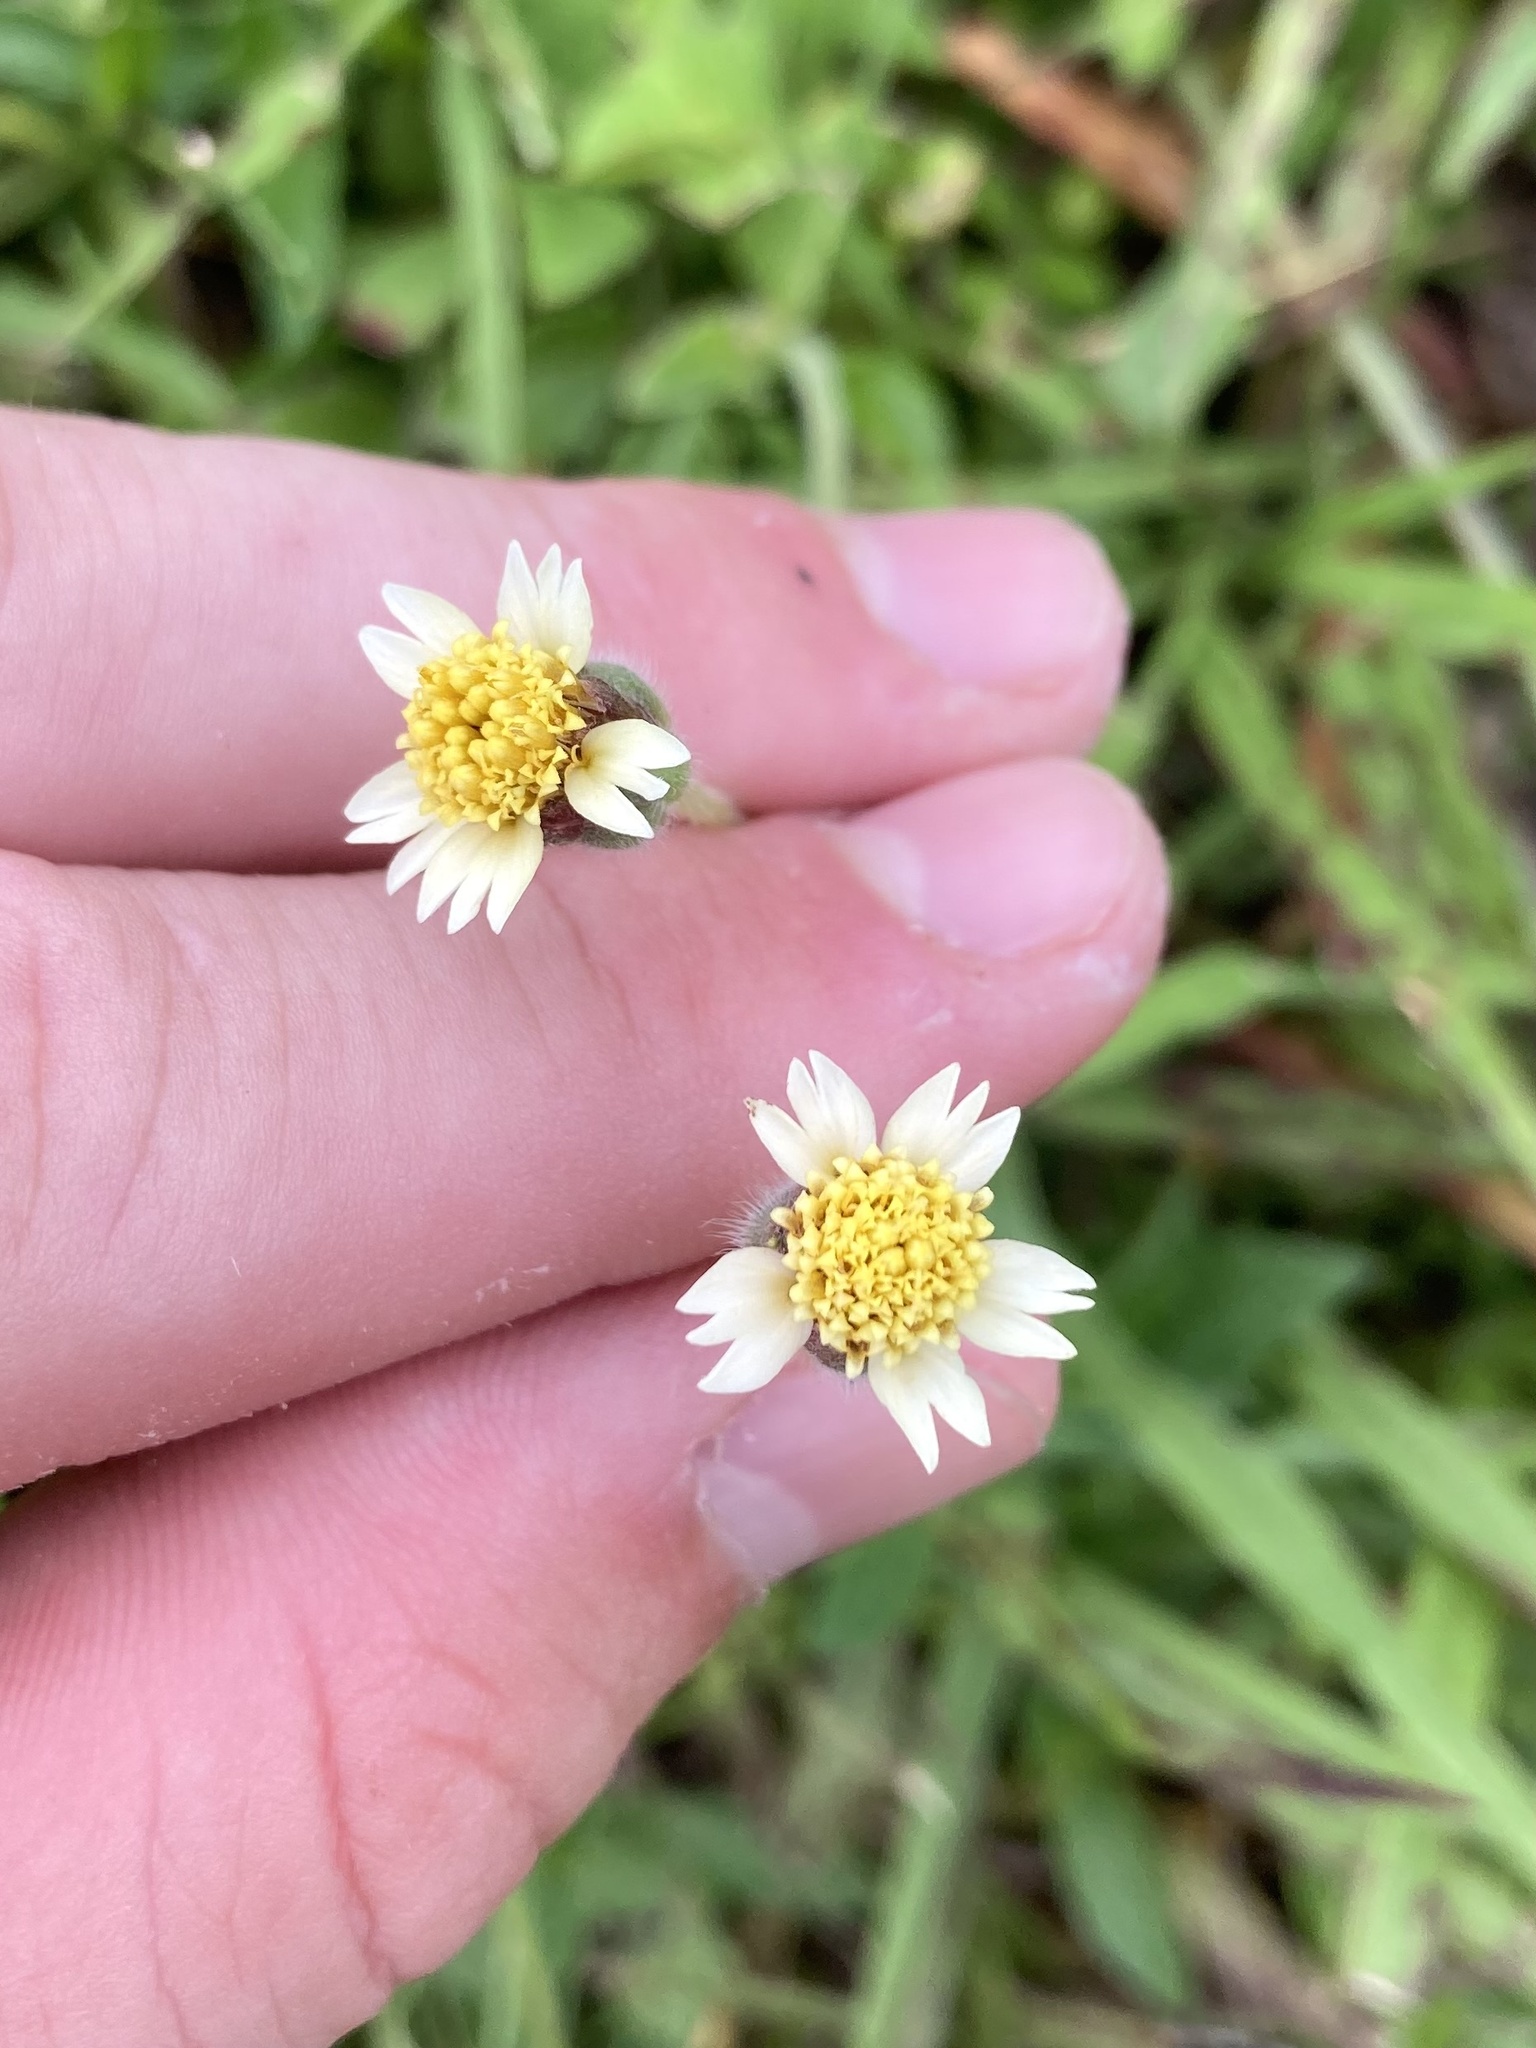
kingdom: Plantae
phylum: Tracheophyta
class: Magnoliopsida
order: Asterales
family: Asteraceae
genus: Tridax
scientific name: Tridax procumbens
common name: Coatbuttons
